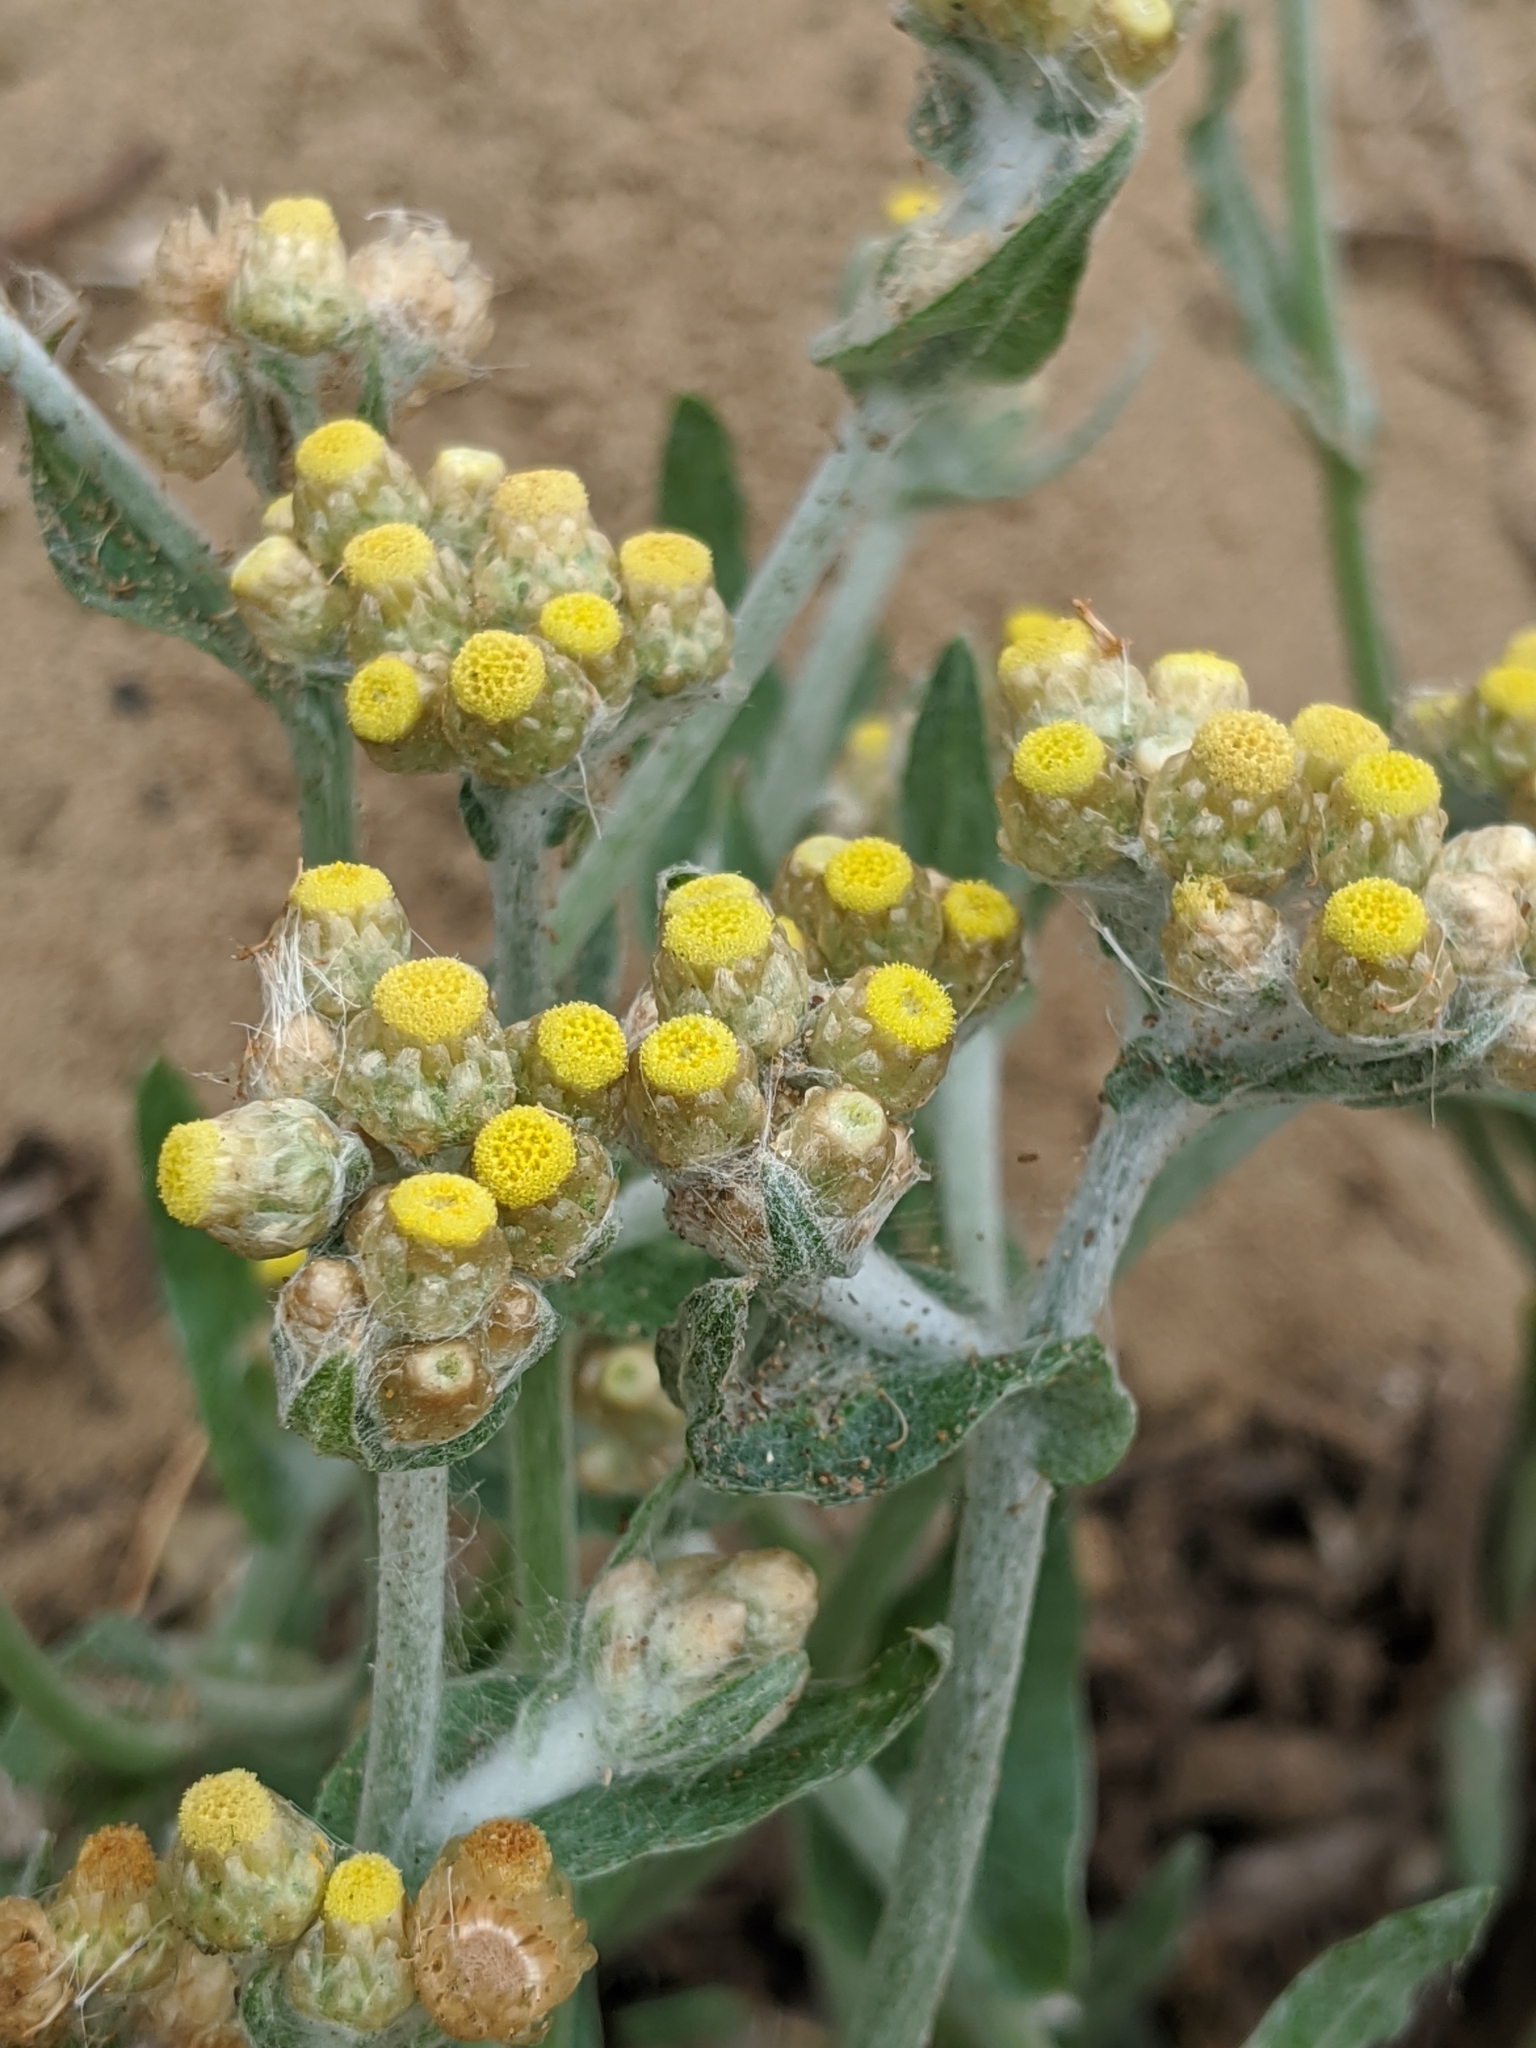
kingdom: Plantae
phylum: Tracheophyta
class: Magnoliopsida
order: Asterales
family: Asteraceae
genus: Pseudognaphalium
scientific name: Pseudognaphalium stramineum
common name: Cotton-batting-plant
